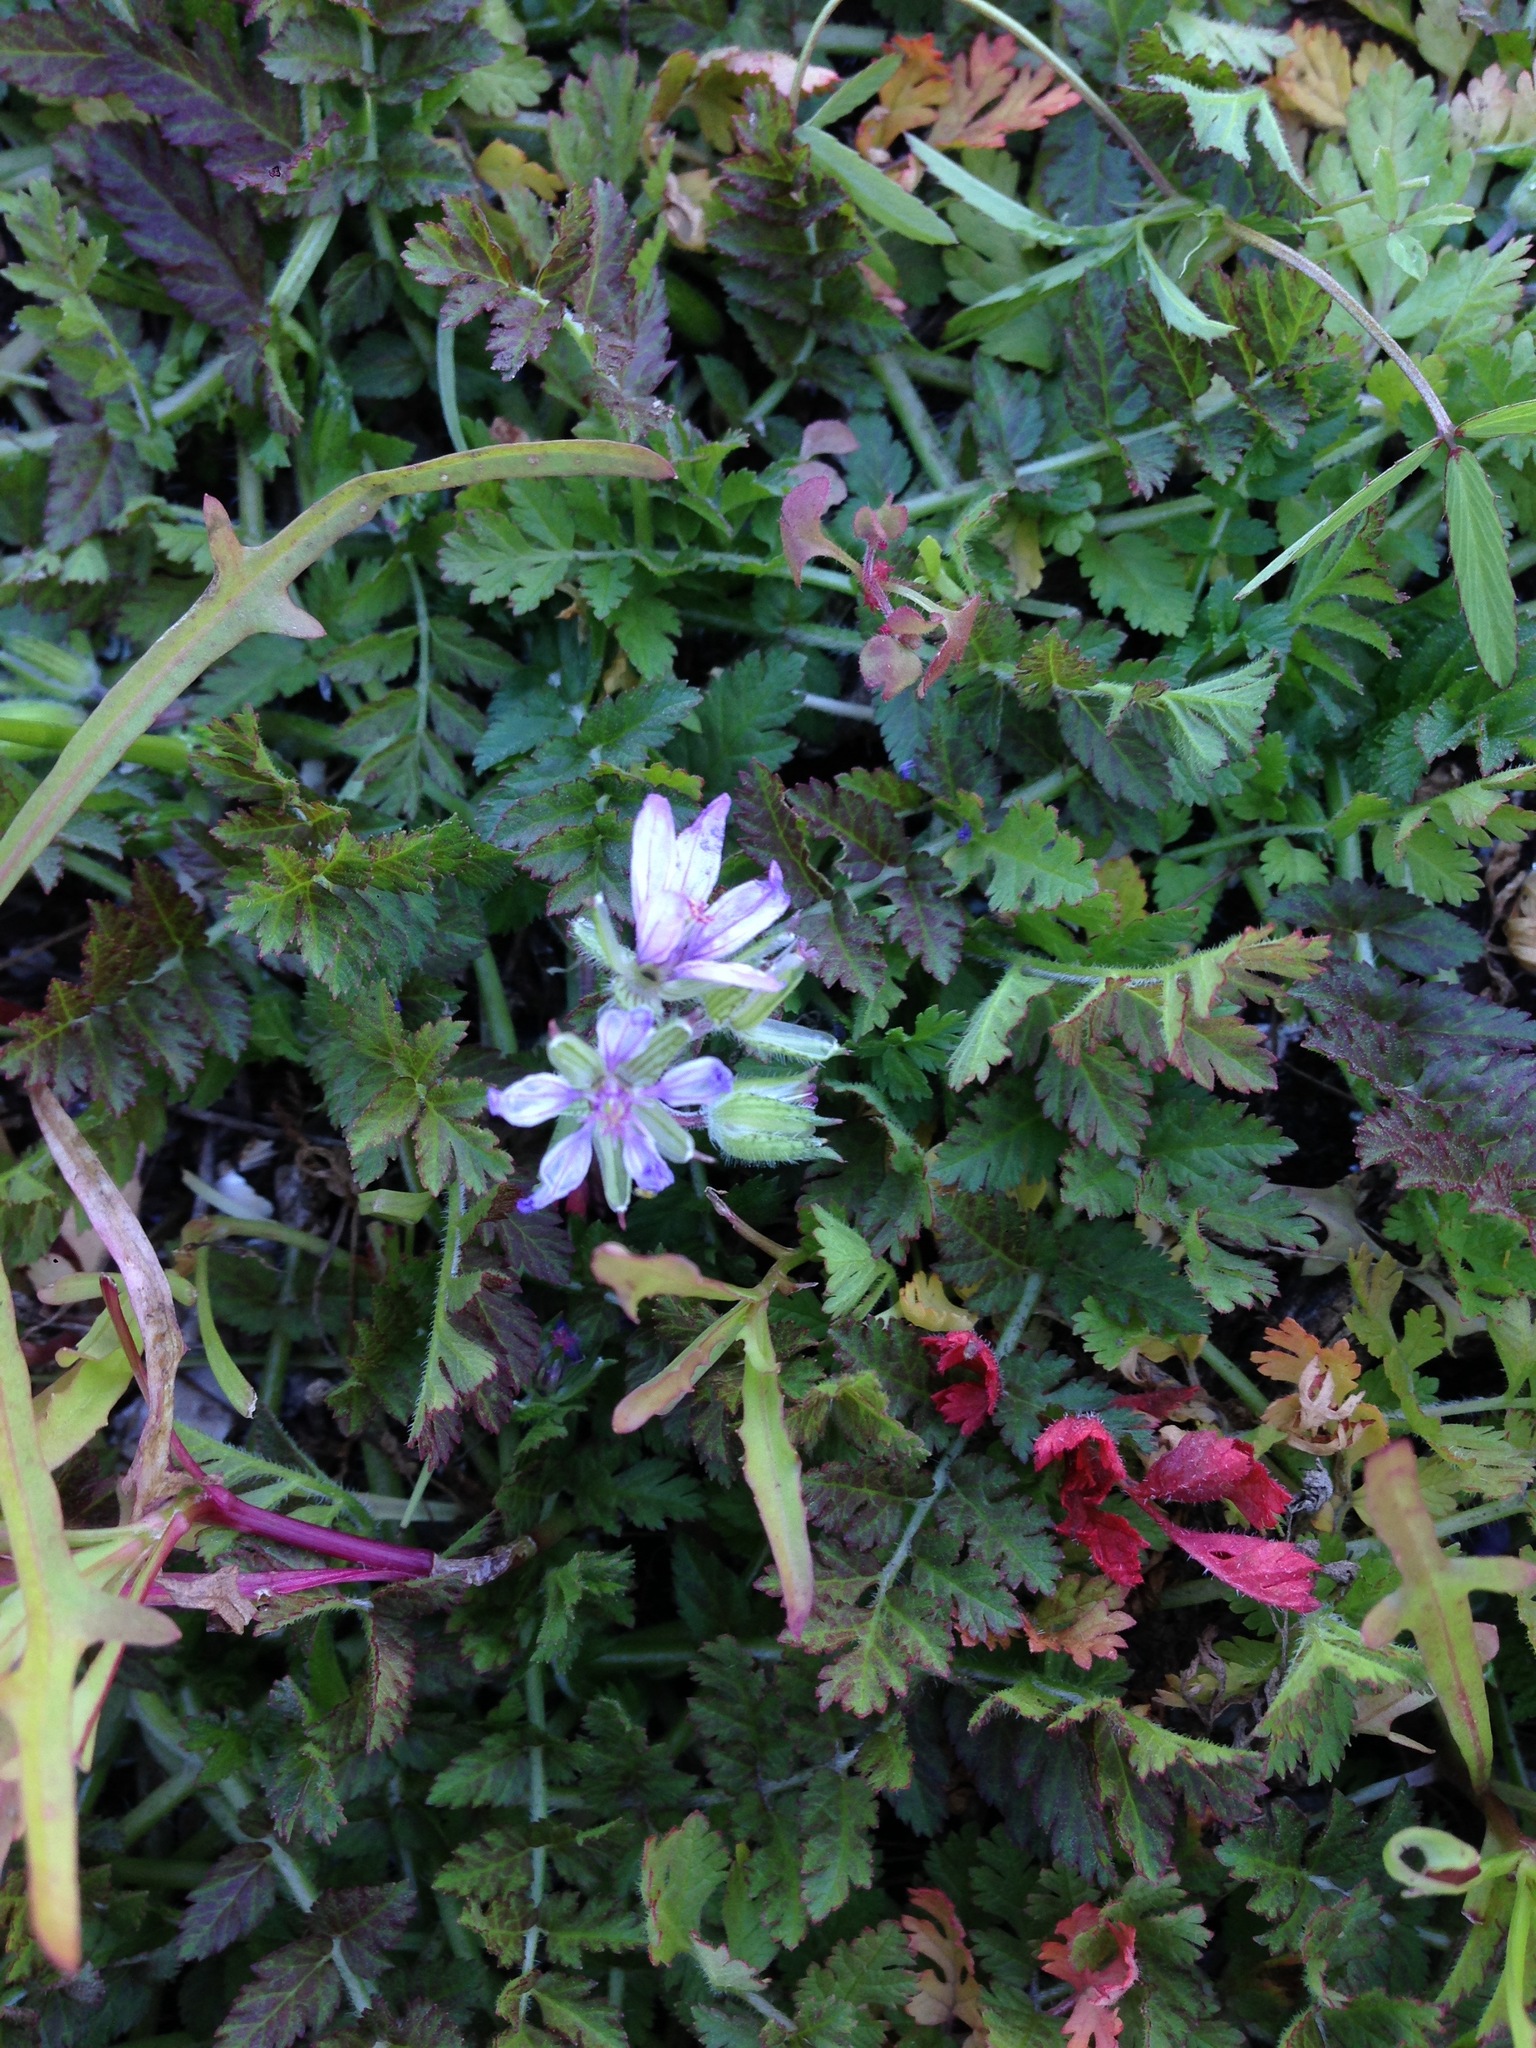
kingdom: Plantae
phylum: Tracheophyta
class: Magnoliopsida
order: Geraniales
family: Geraniaceae
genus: Erodium
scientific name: Erodium moschatum
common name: Musk stork's-bill
